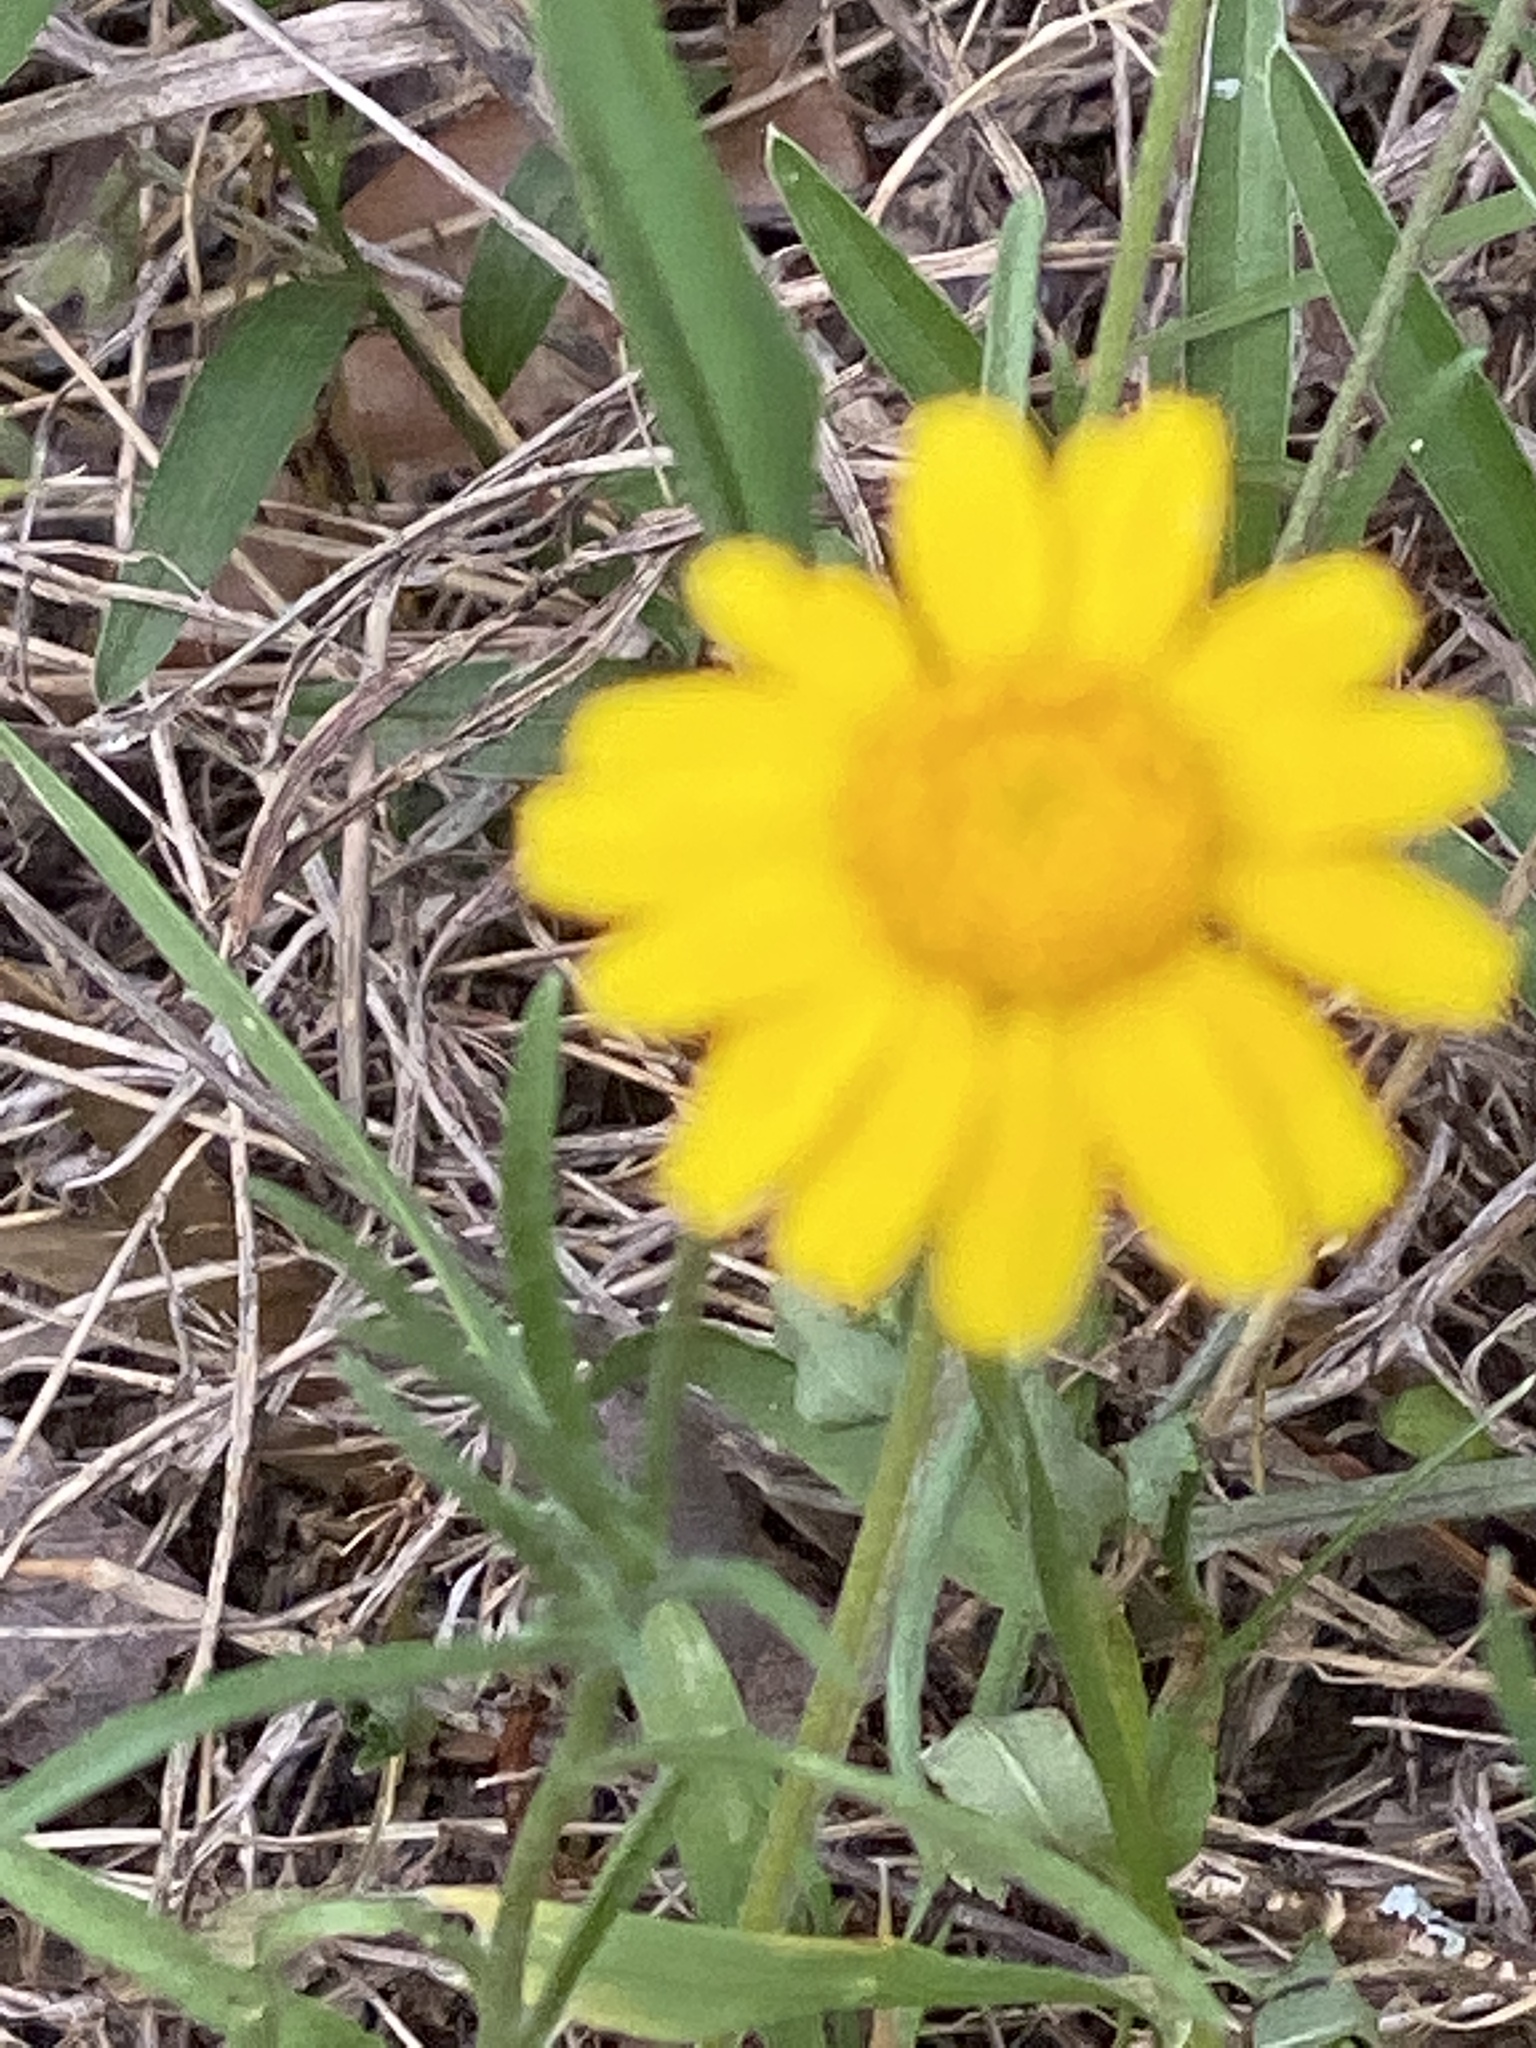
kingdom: Plantae
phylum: Tracheophyta
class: Magnoliopsida
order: Asterales
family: Asteraceae
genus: Tetraneuris
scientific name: Tetraneuris linearifolia
